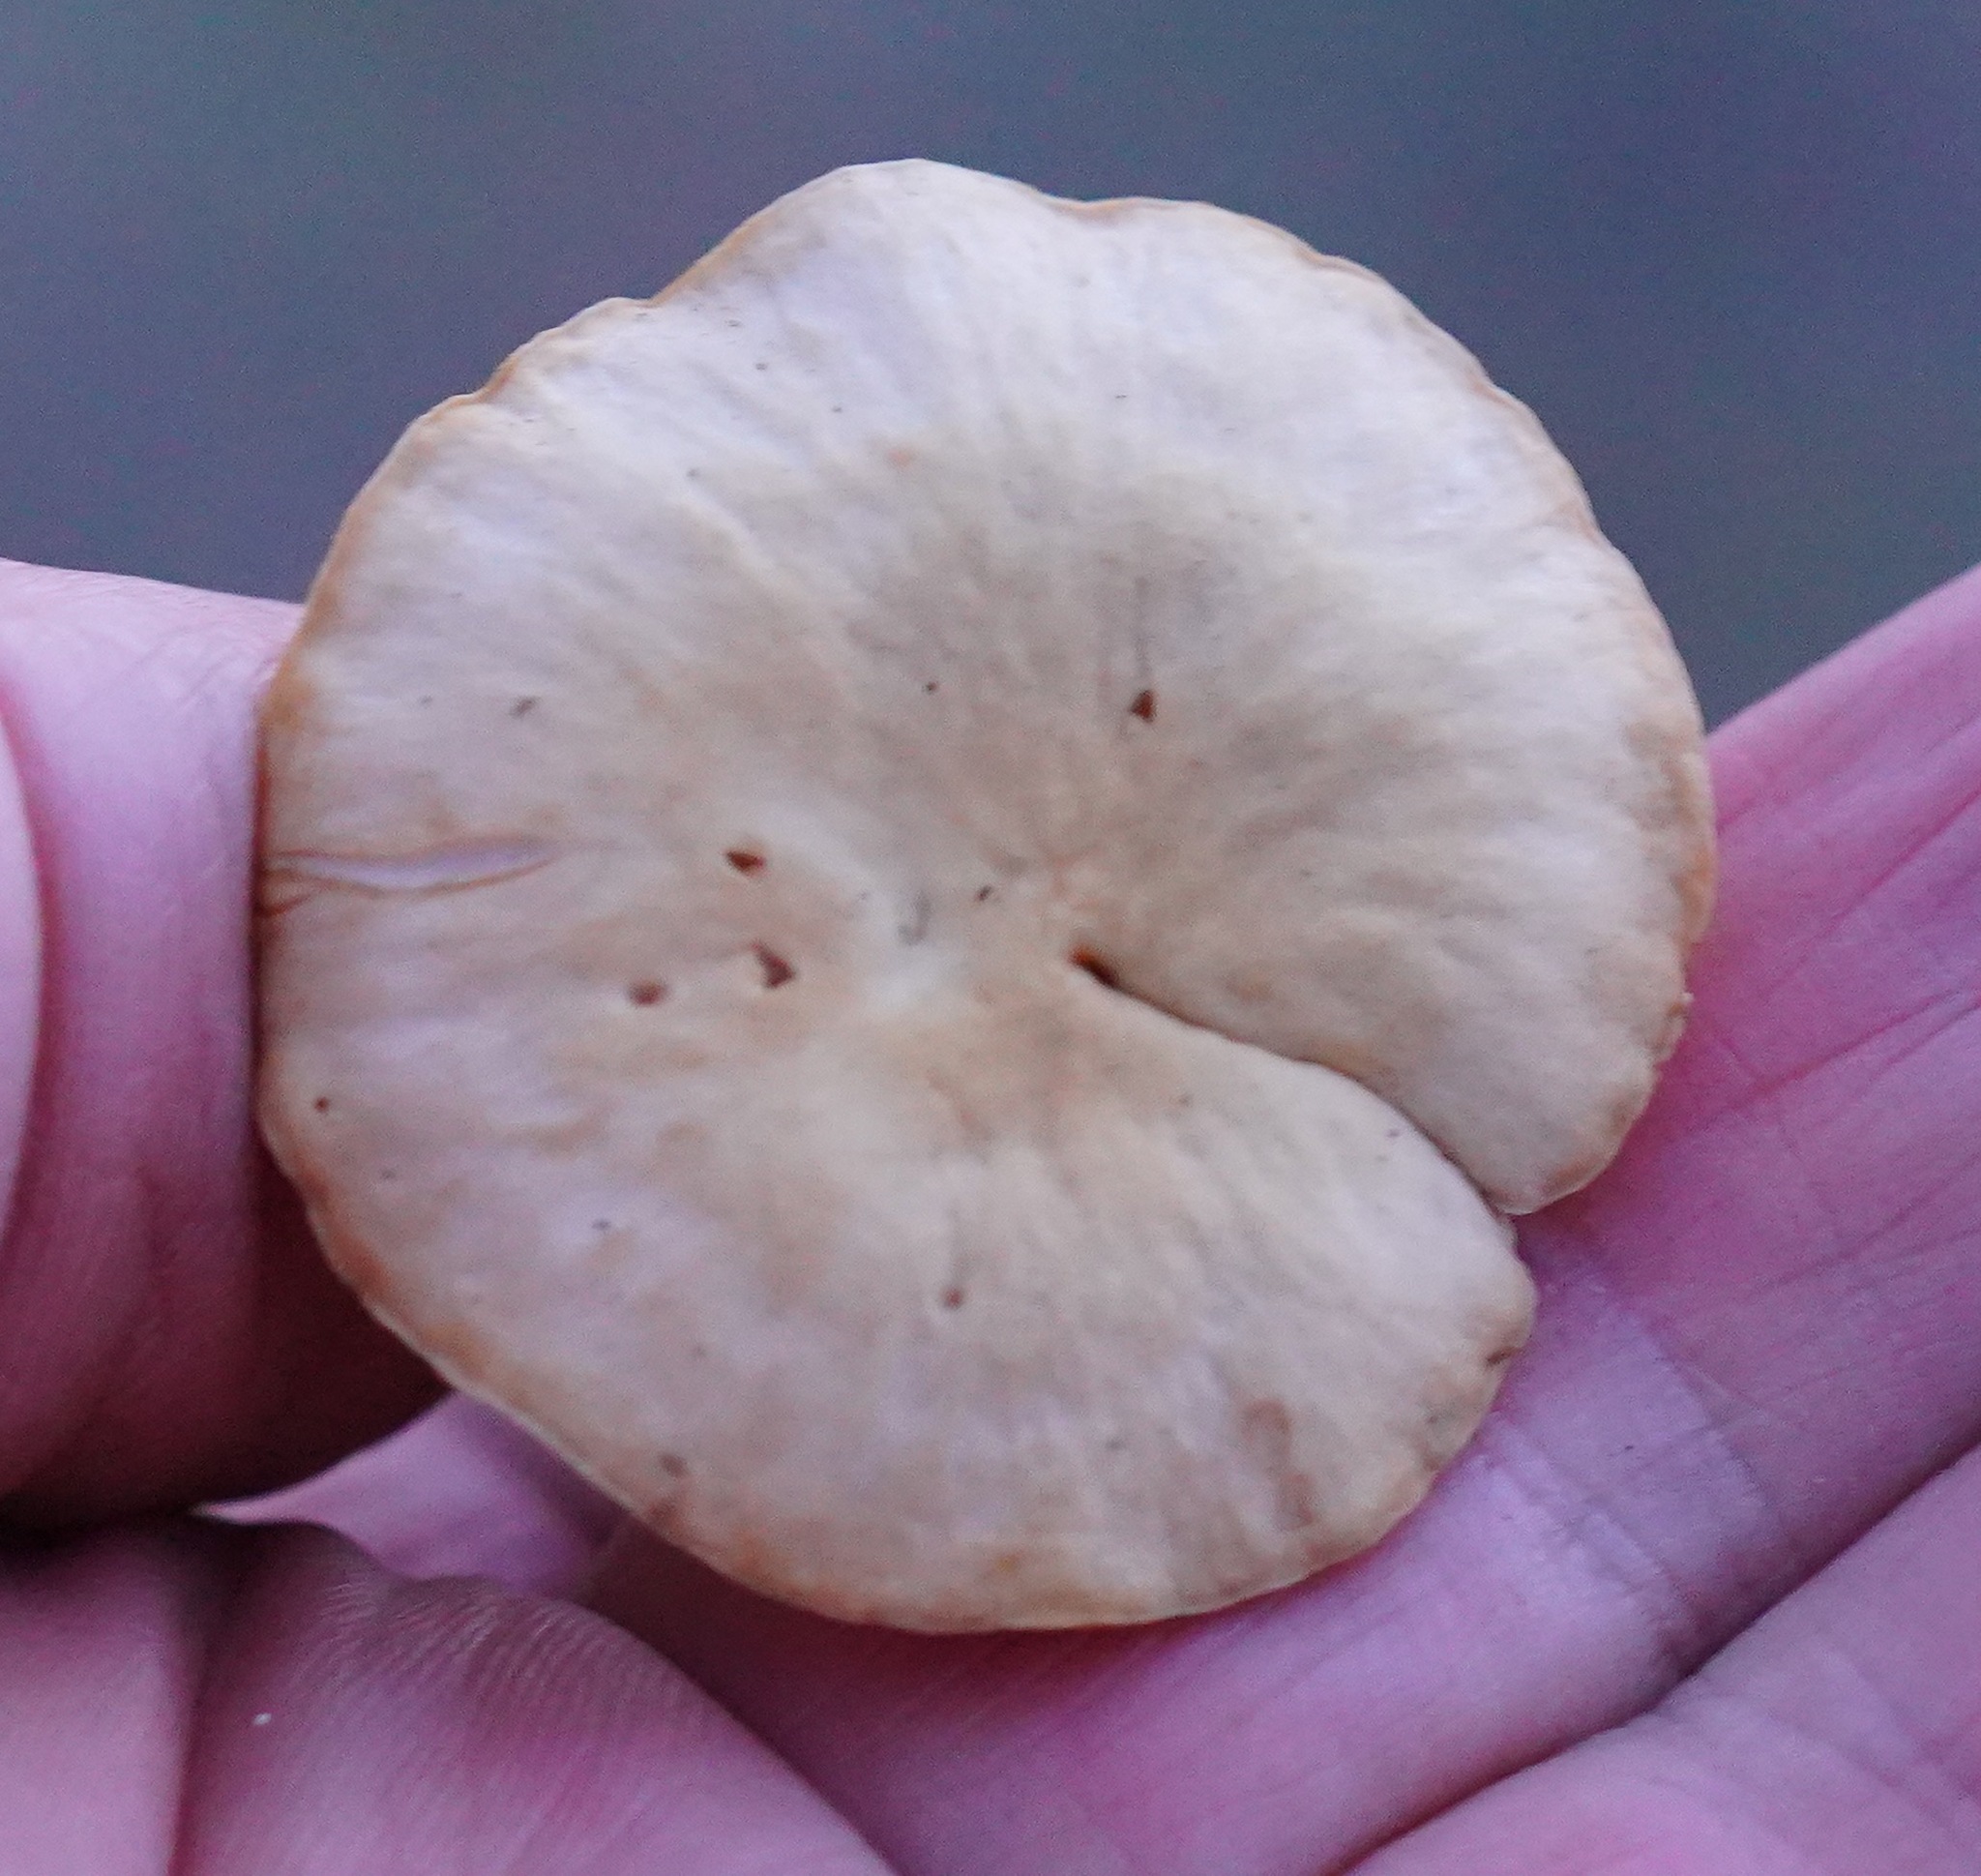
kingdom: Fungi
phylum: Basidiomycota
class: Agaricomycetes
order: Agaricales
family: Marasmiaceae
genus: Marasmius
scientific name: Marasmius oreades
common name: Fairy ring champignon
